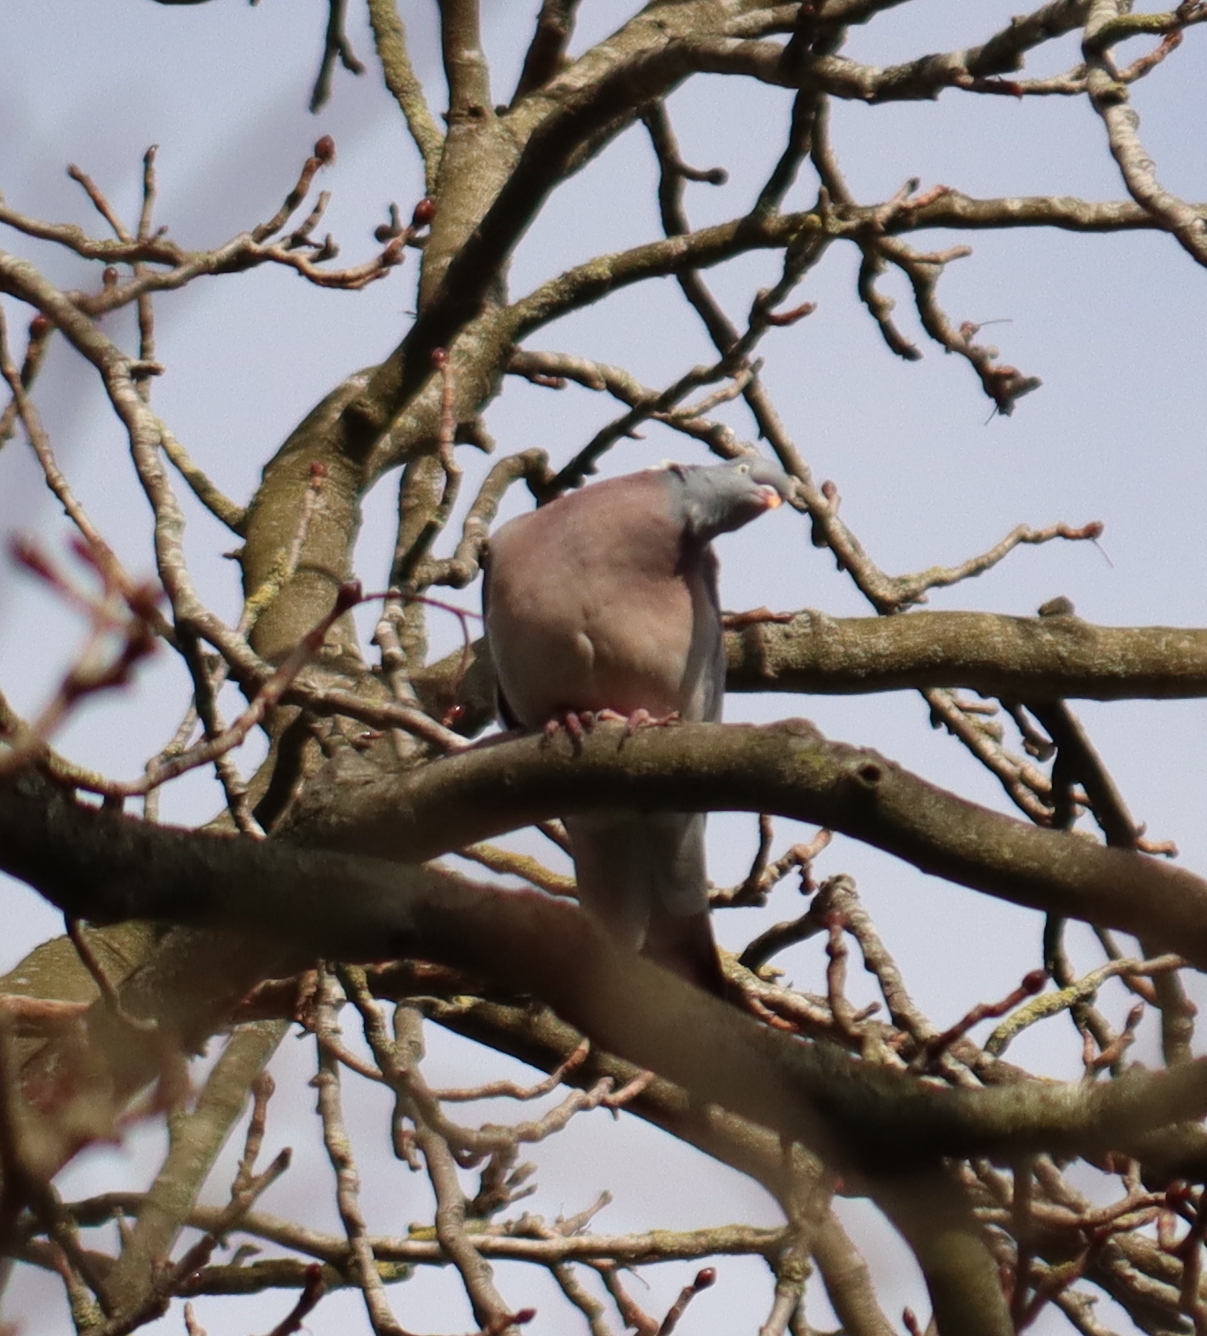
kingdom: Animalia
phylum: Chordata
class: Aves
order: Columbiformes
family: Columbidae
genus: Columba
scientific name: Columba palumbus
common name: Common wood pigeon
